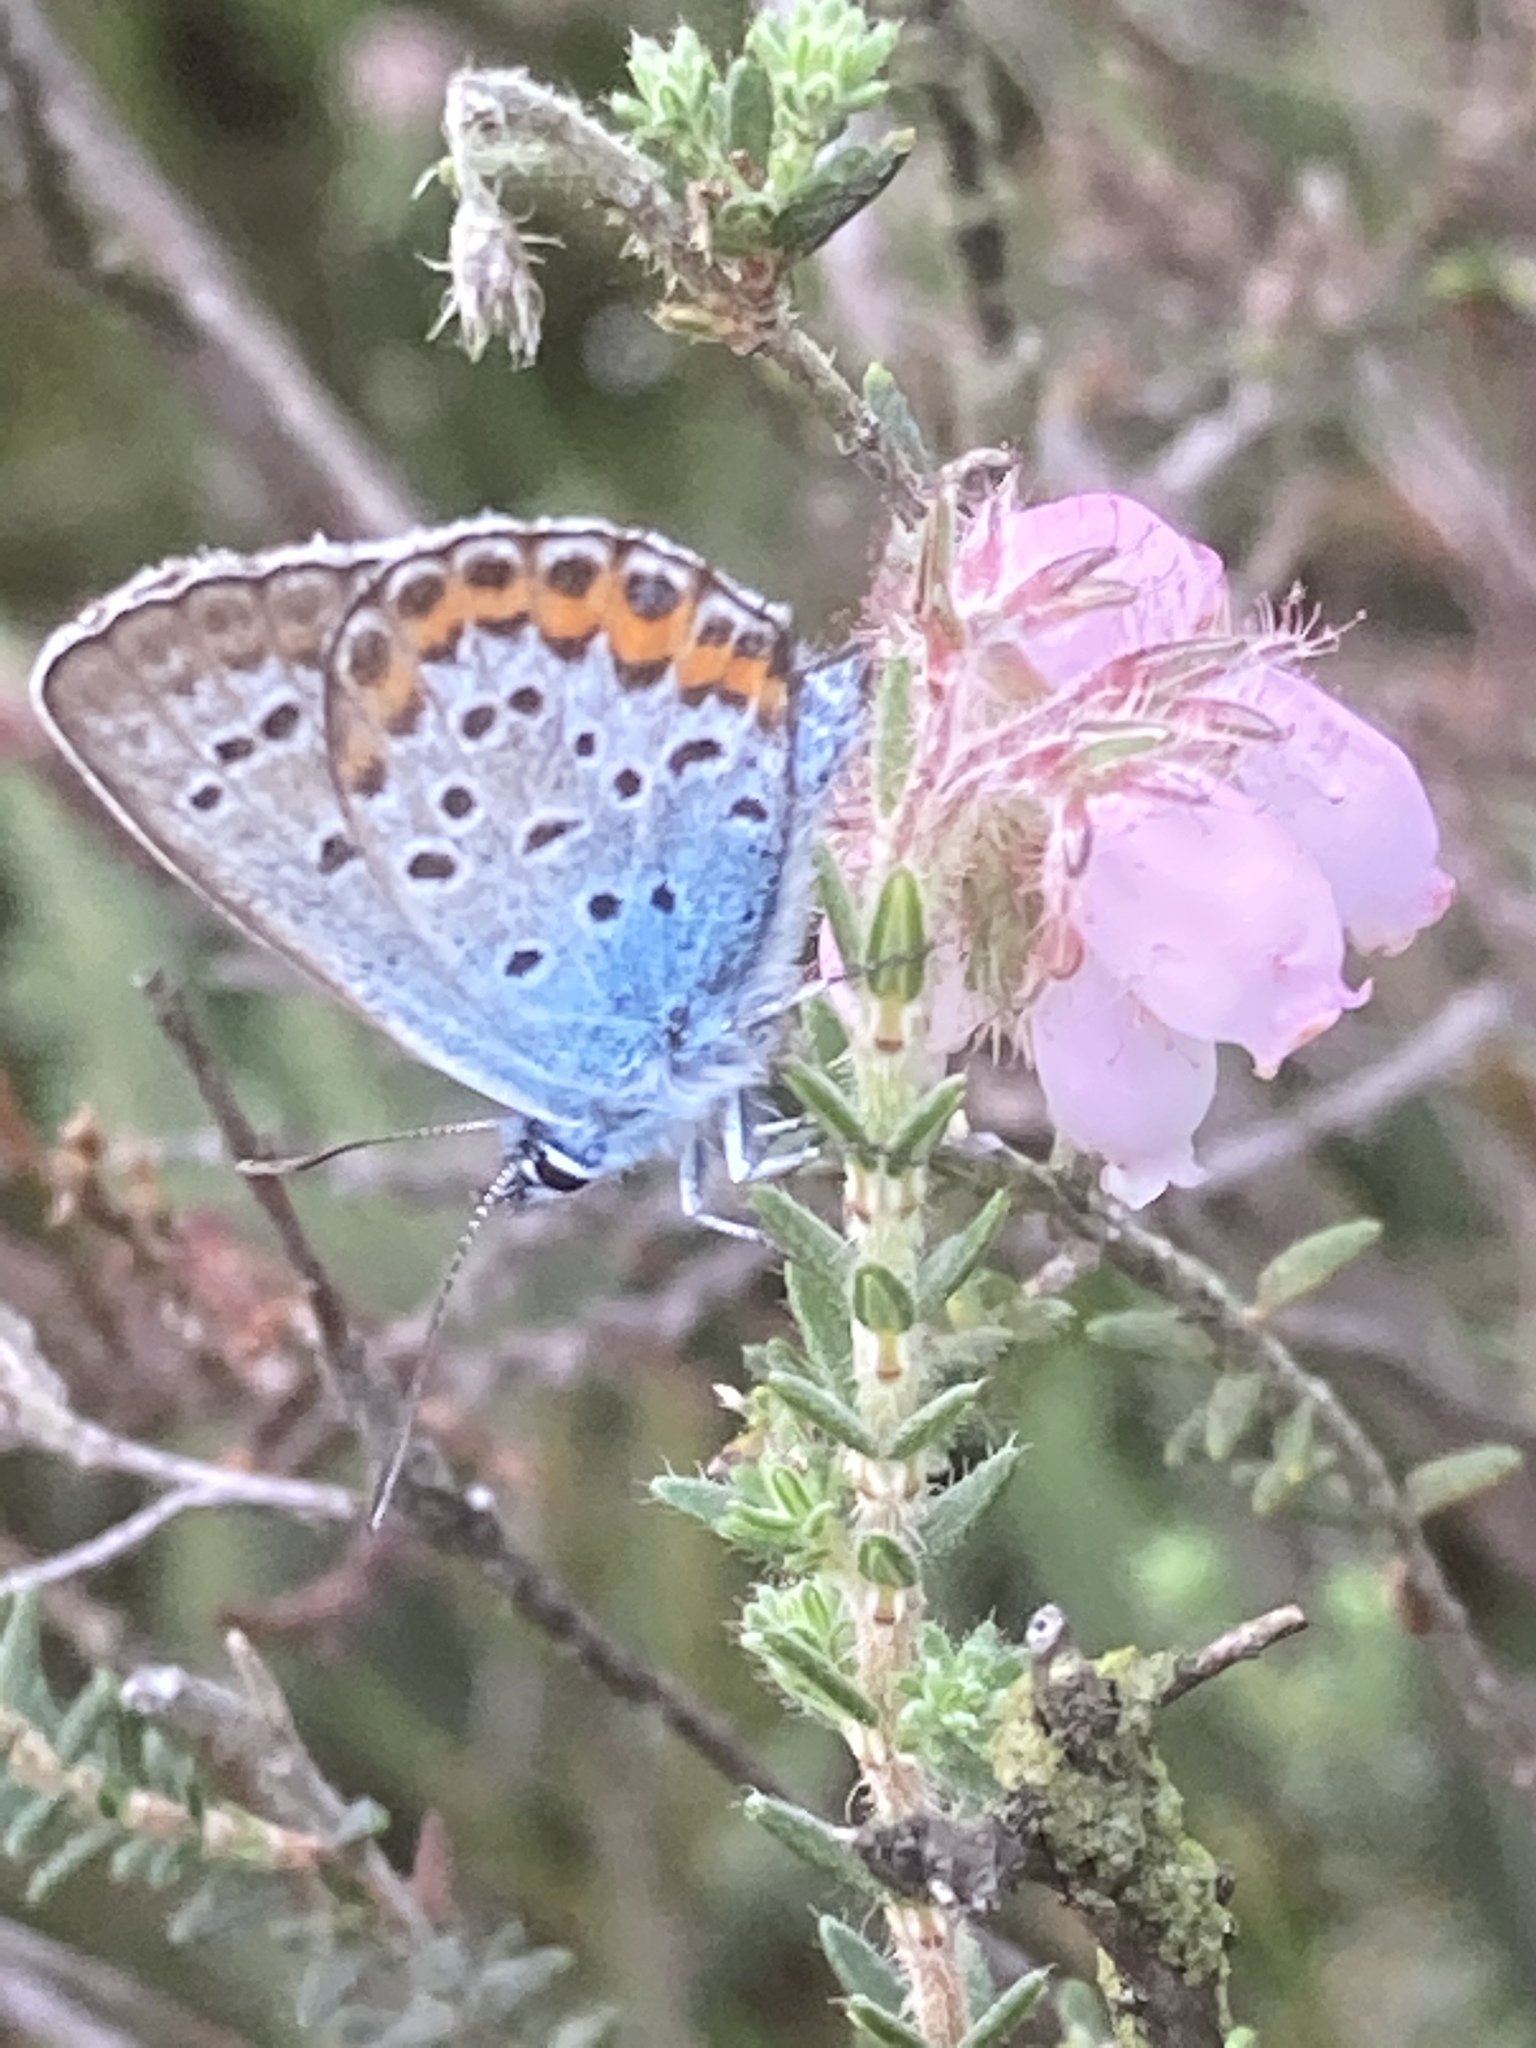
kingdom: Animalia
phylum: Arthropoda
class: Insecta
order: Lepidoptera
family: Lycaenidae
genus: Plebejus
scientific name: Plebejus argus
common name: Silver-studded blue
